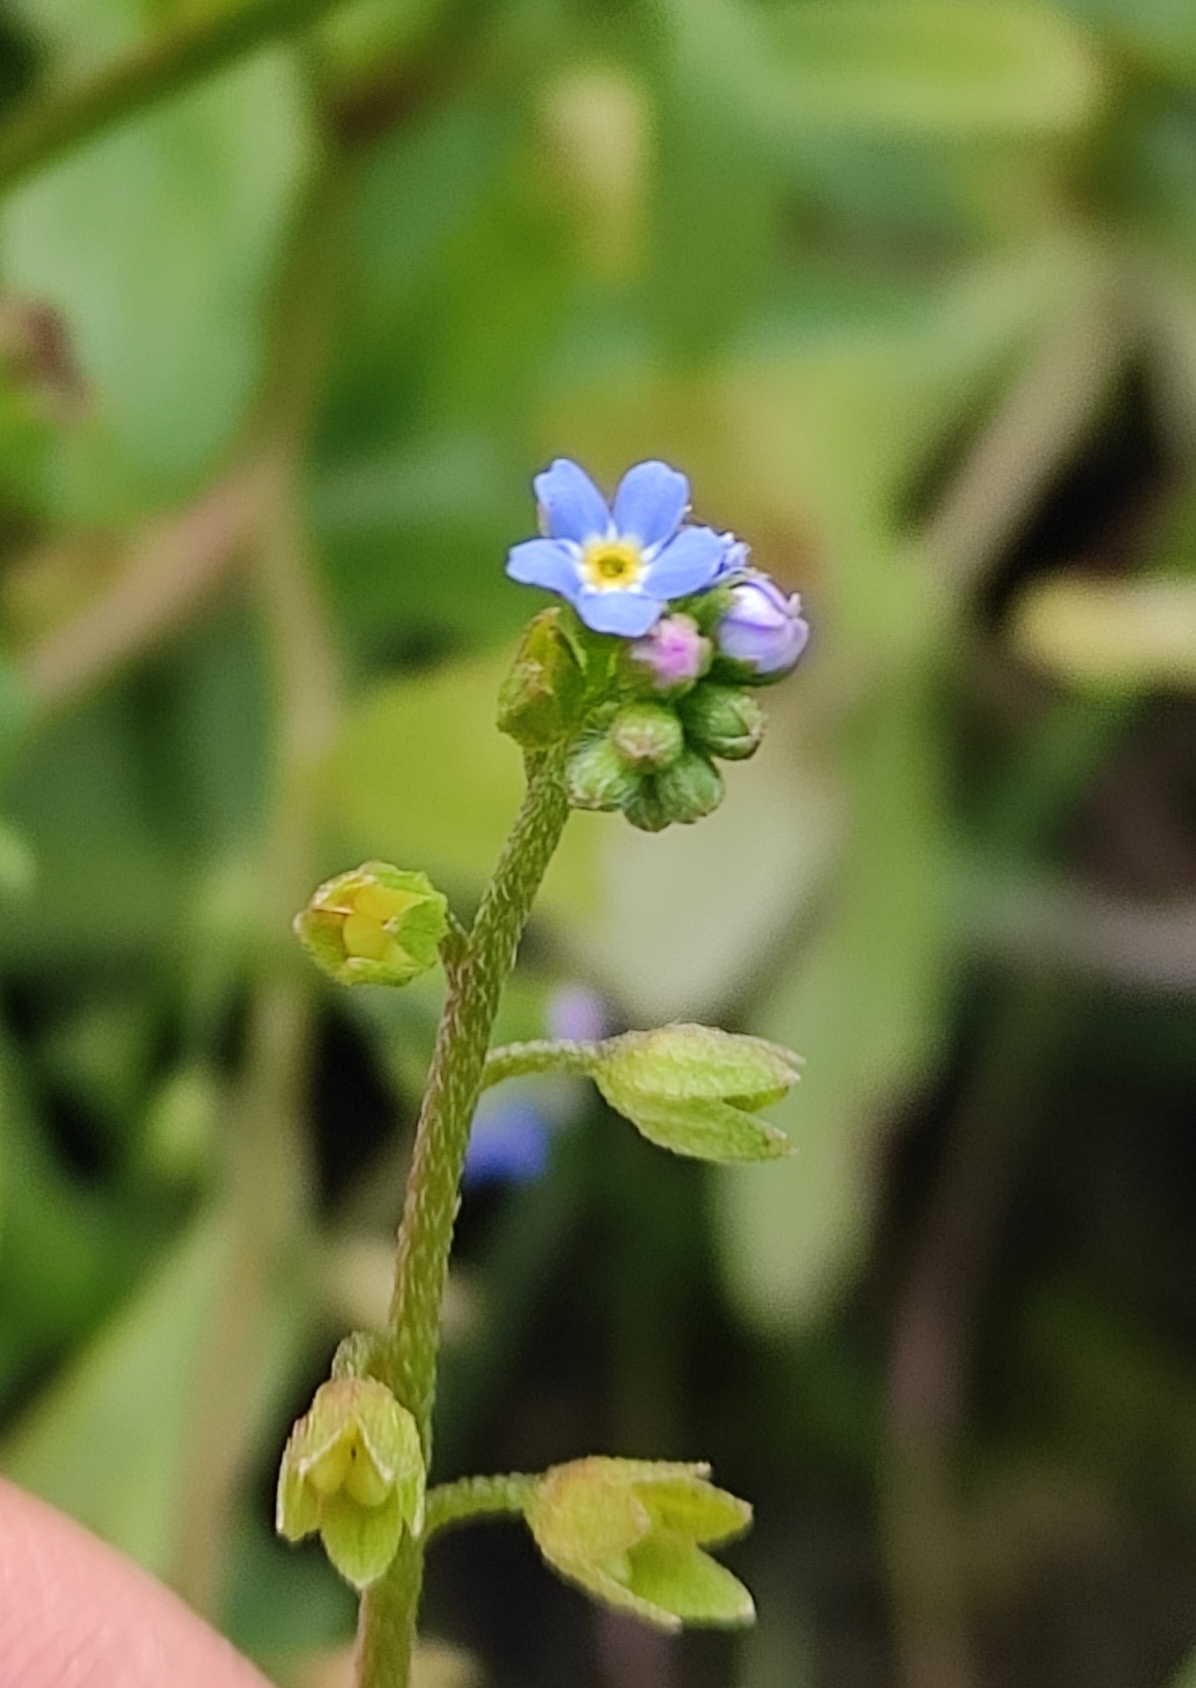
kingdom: Plantae
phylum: Tracheophyta
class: Magnoliopsida
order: Boraginales
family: Boraginaceae
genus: Myosotis
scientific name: Myosotis scorpioides
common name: Water forget-me-not
